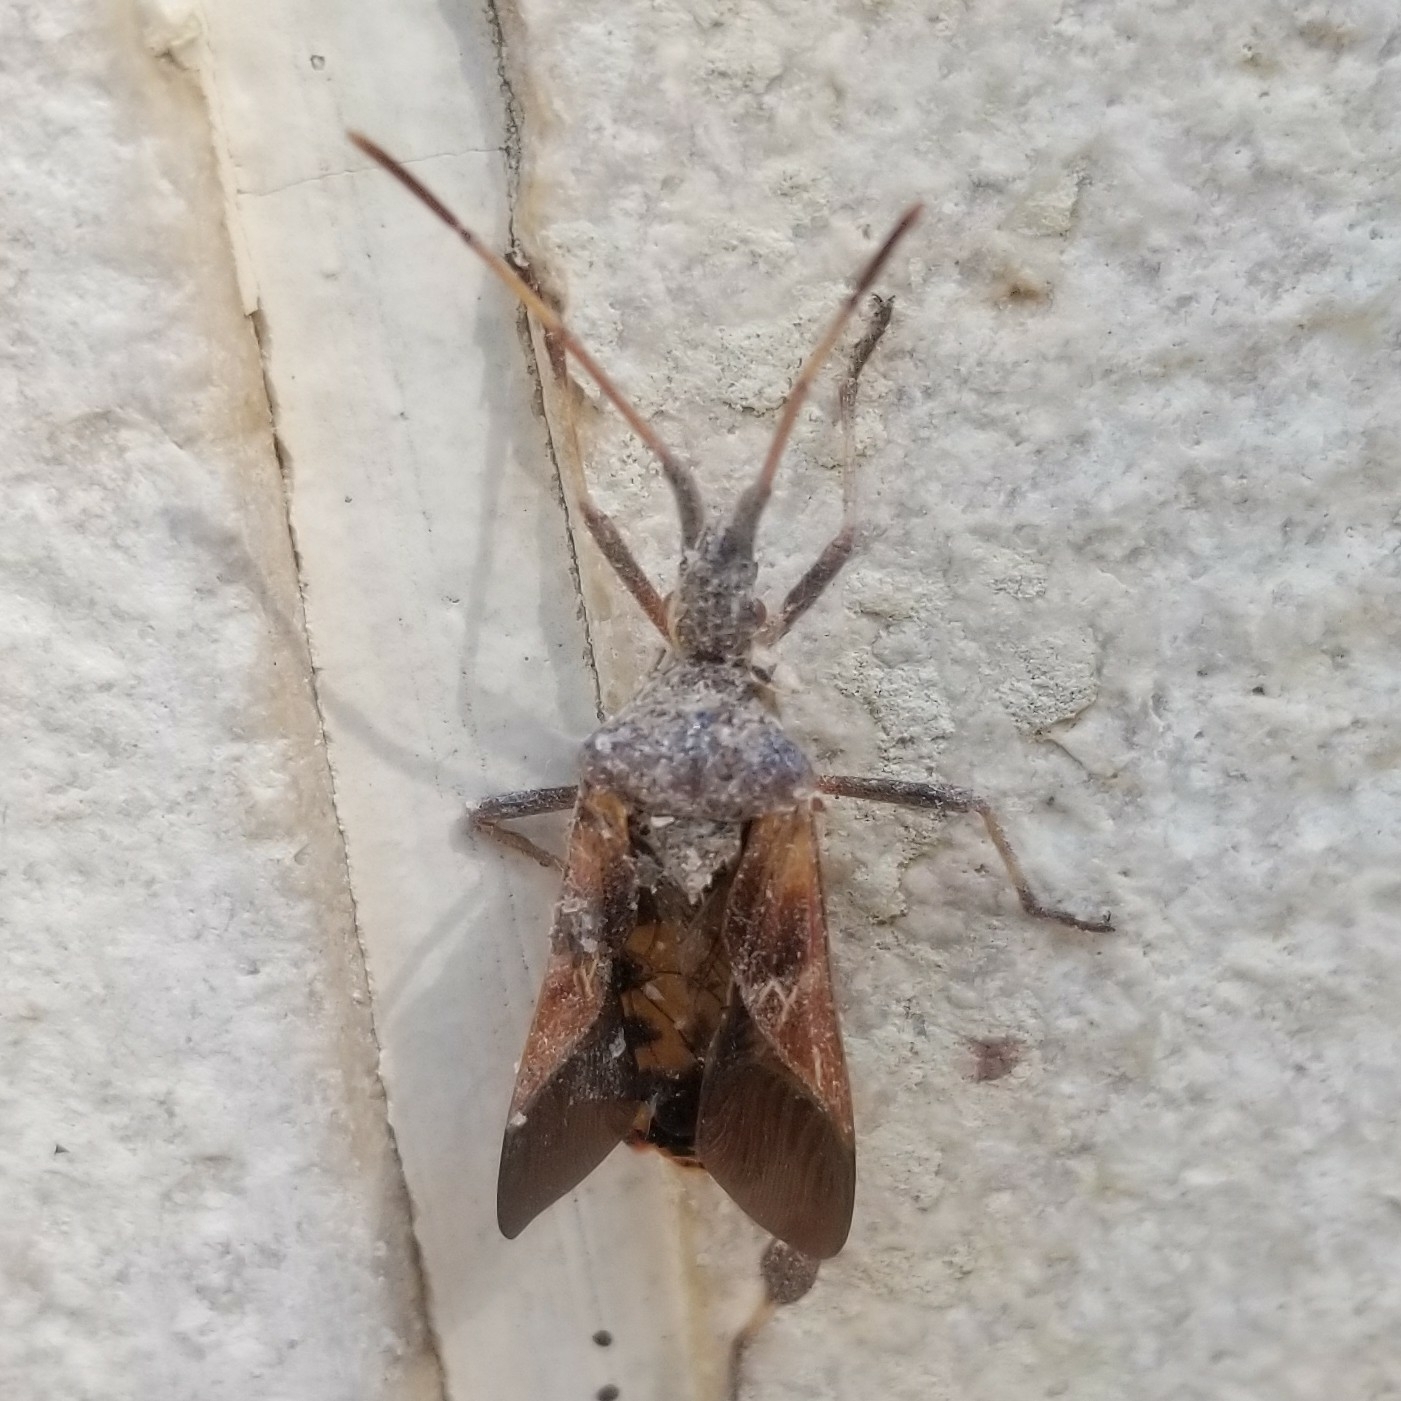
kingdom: Animalia
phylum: Arthropoda
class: Insecta
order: Hemiptera
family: Coreidae
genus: Leptoglossus
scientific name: Leptoglossus occidentalis
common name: Western conifer-seed bug
